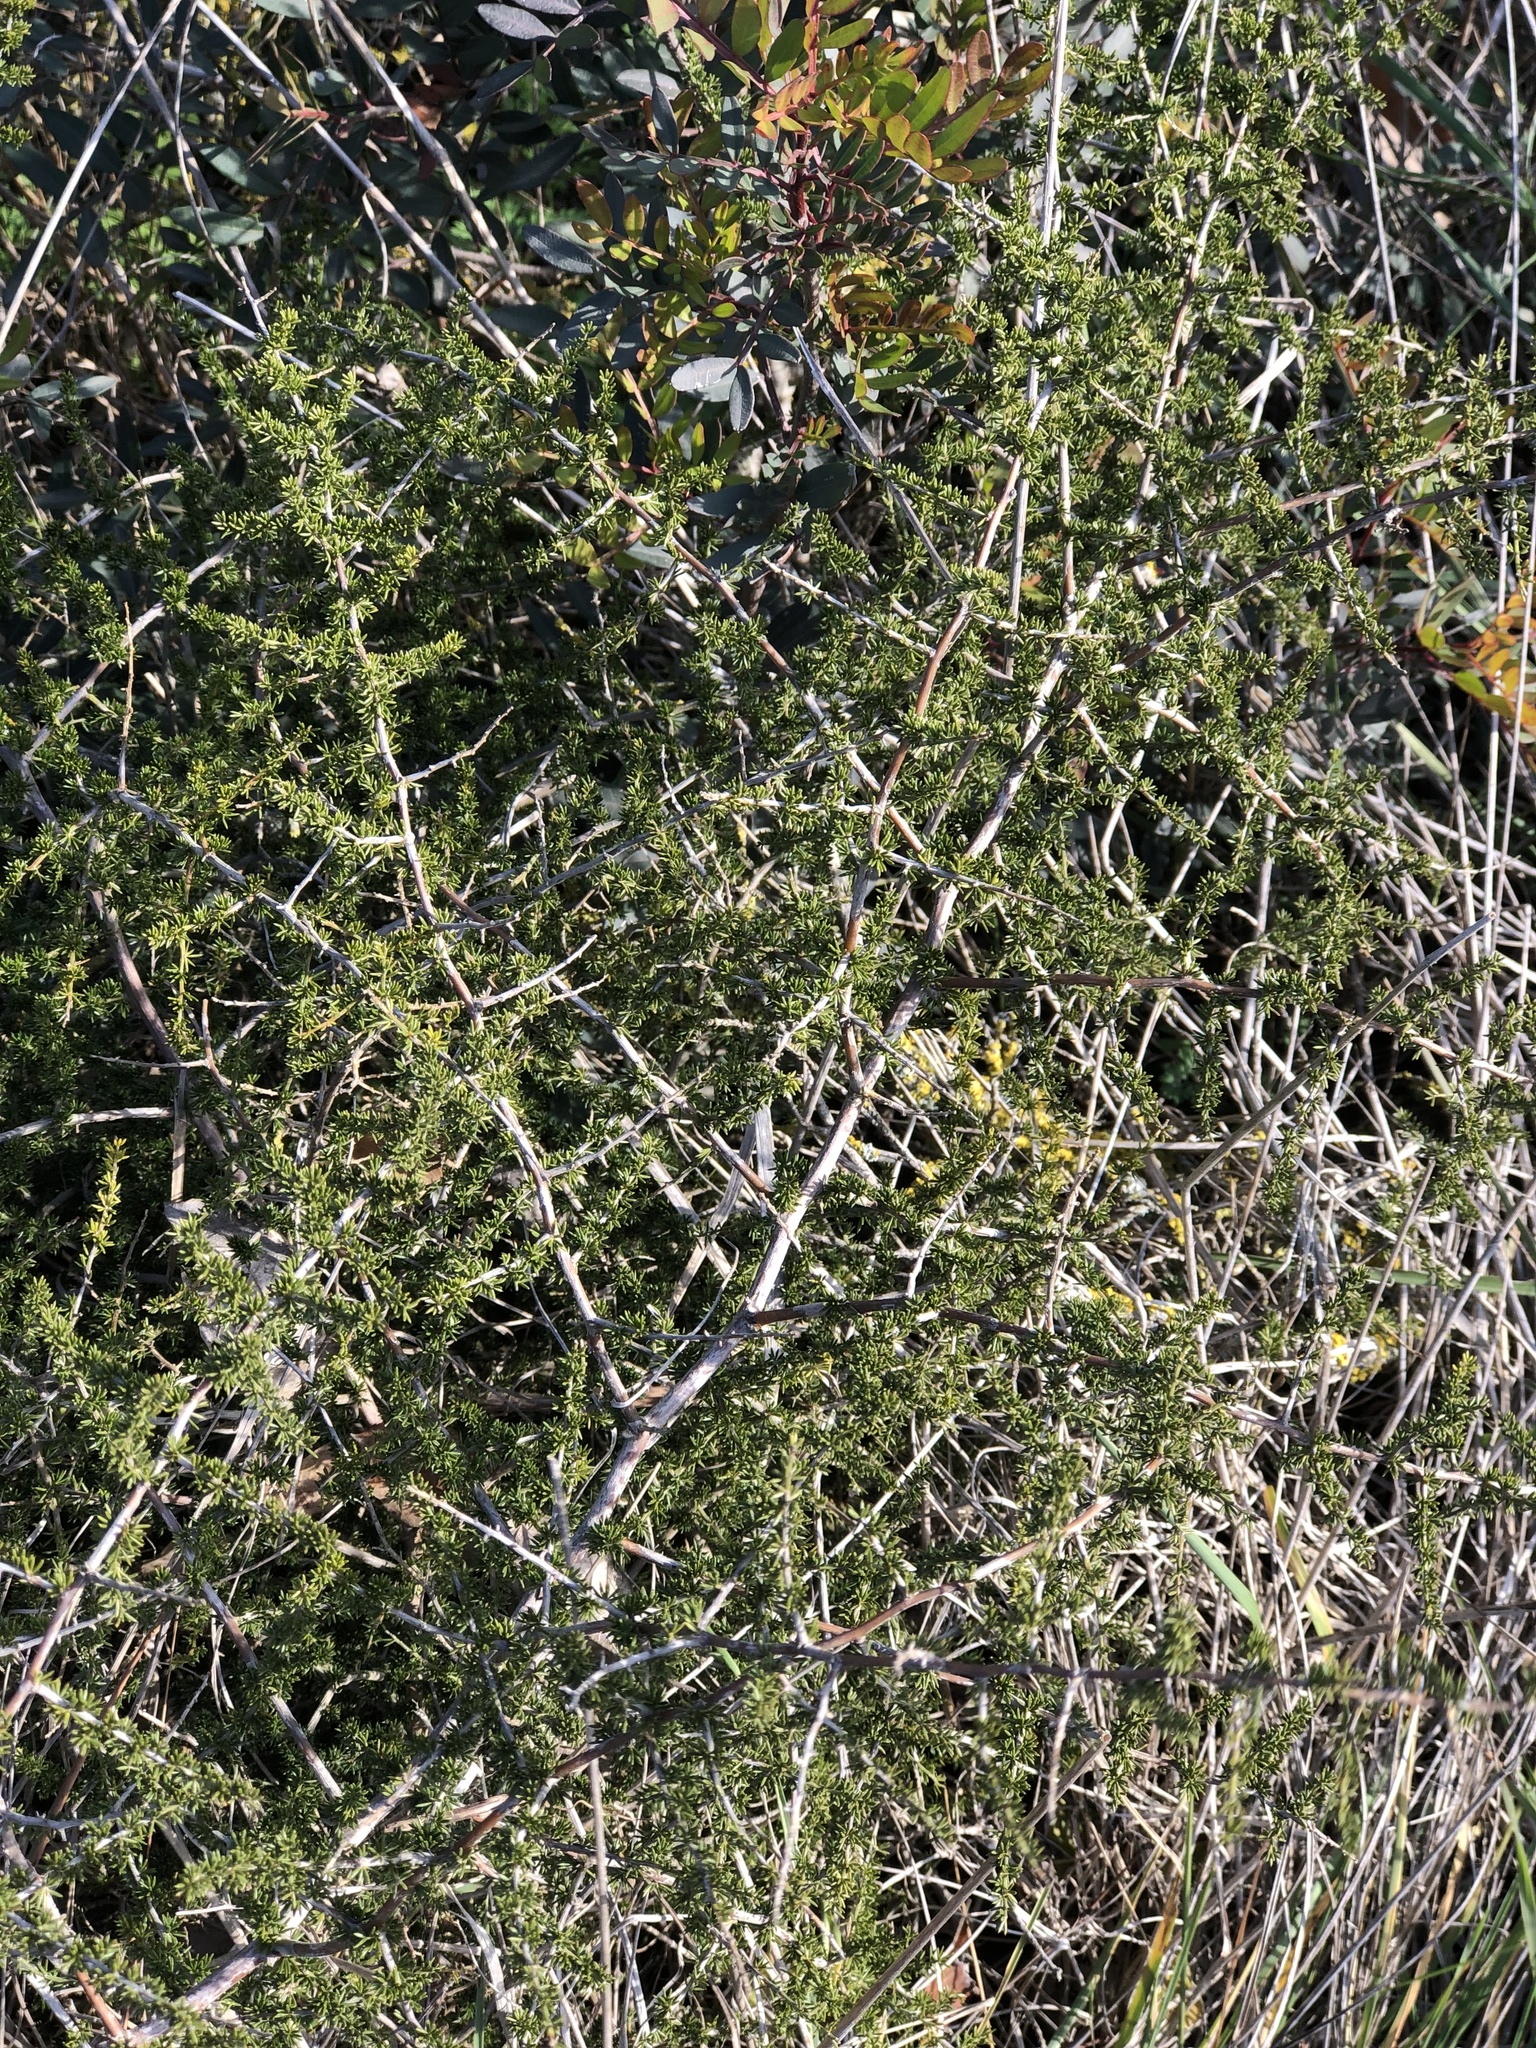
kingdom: Plantae
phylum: Tracheophyta
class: Liliopsida
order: Asparagales
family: Asparagaceae
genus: Asparagus
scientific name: Asparagus acutifolius
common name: Wild asparagus
